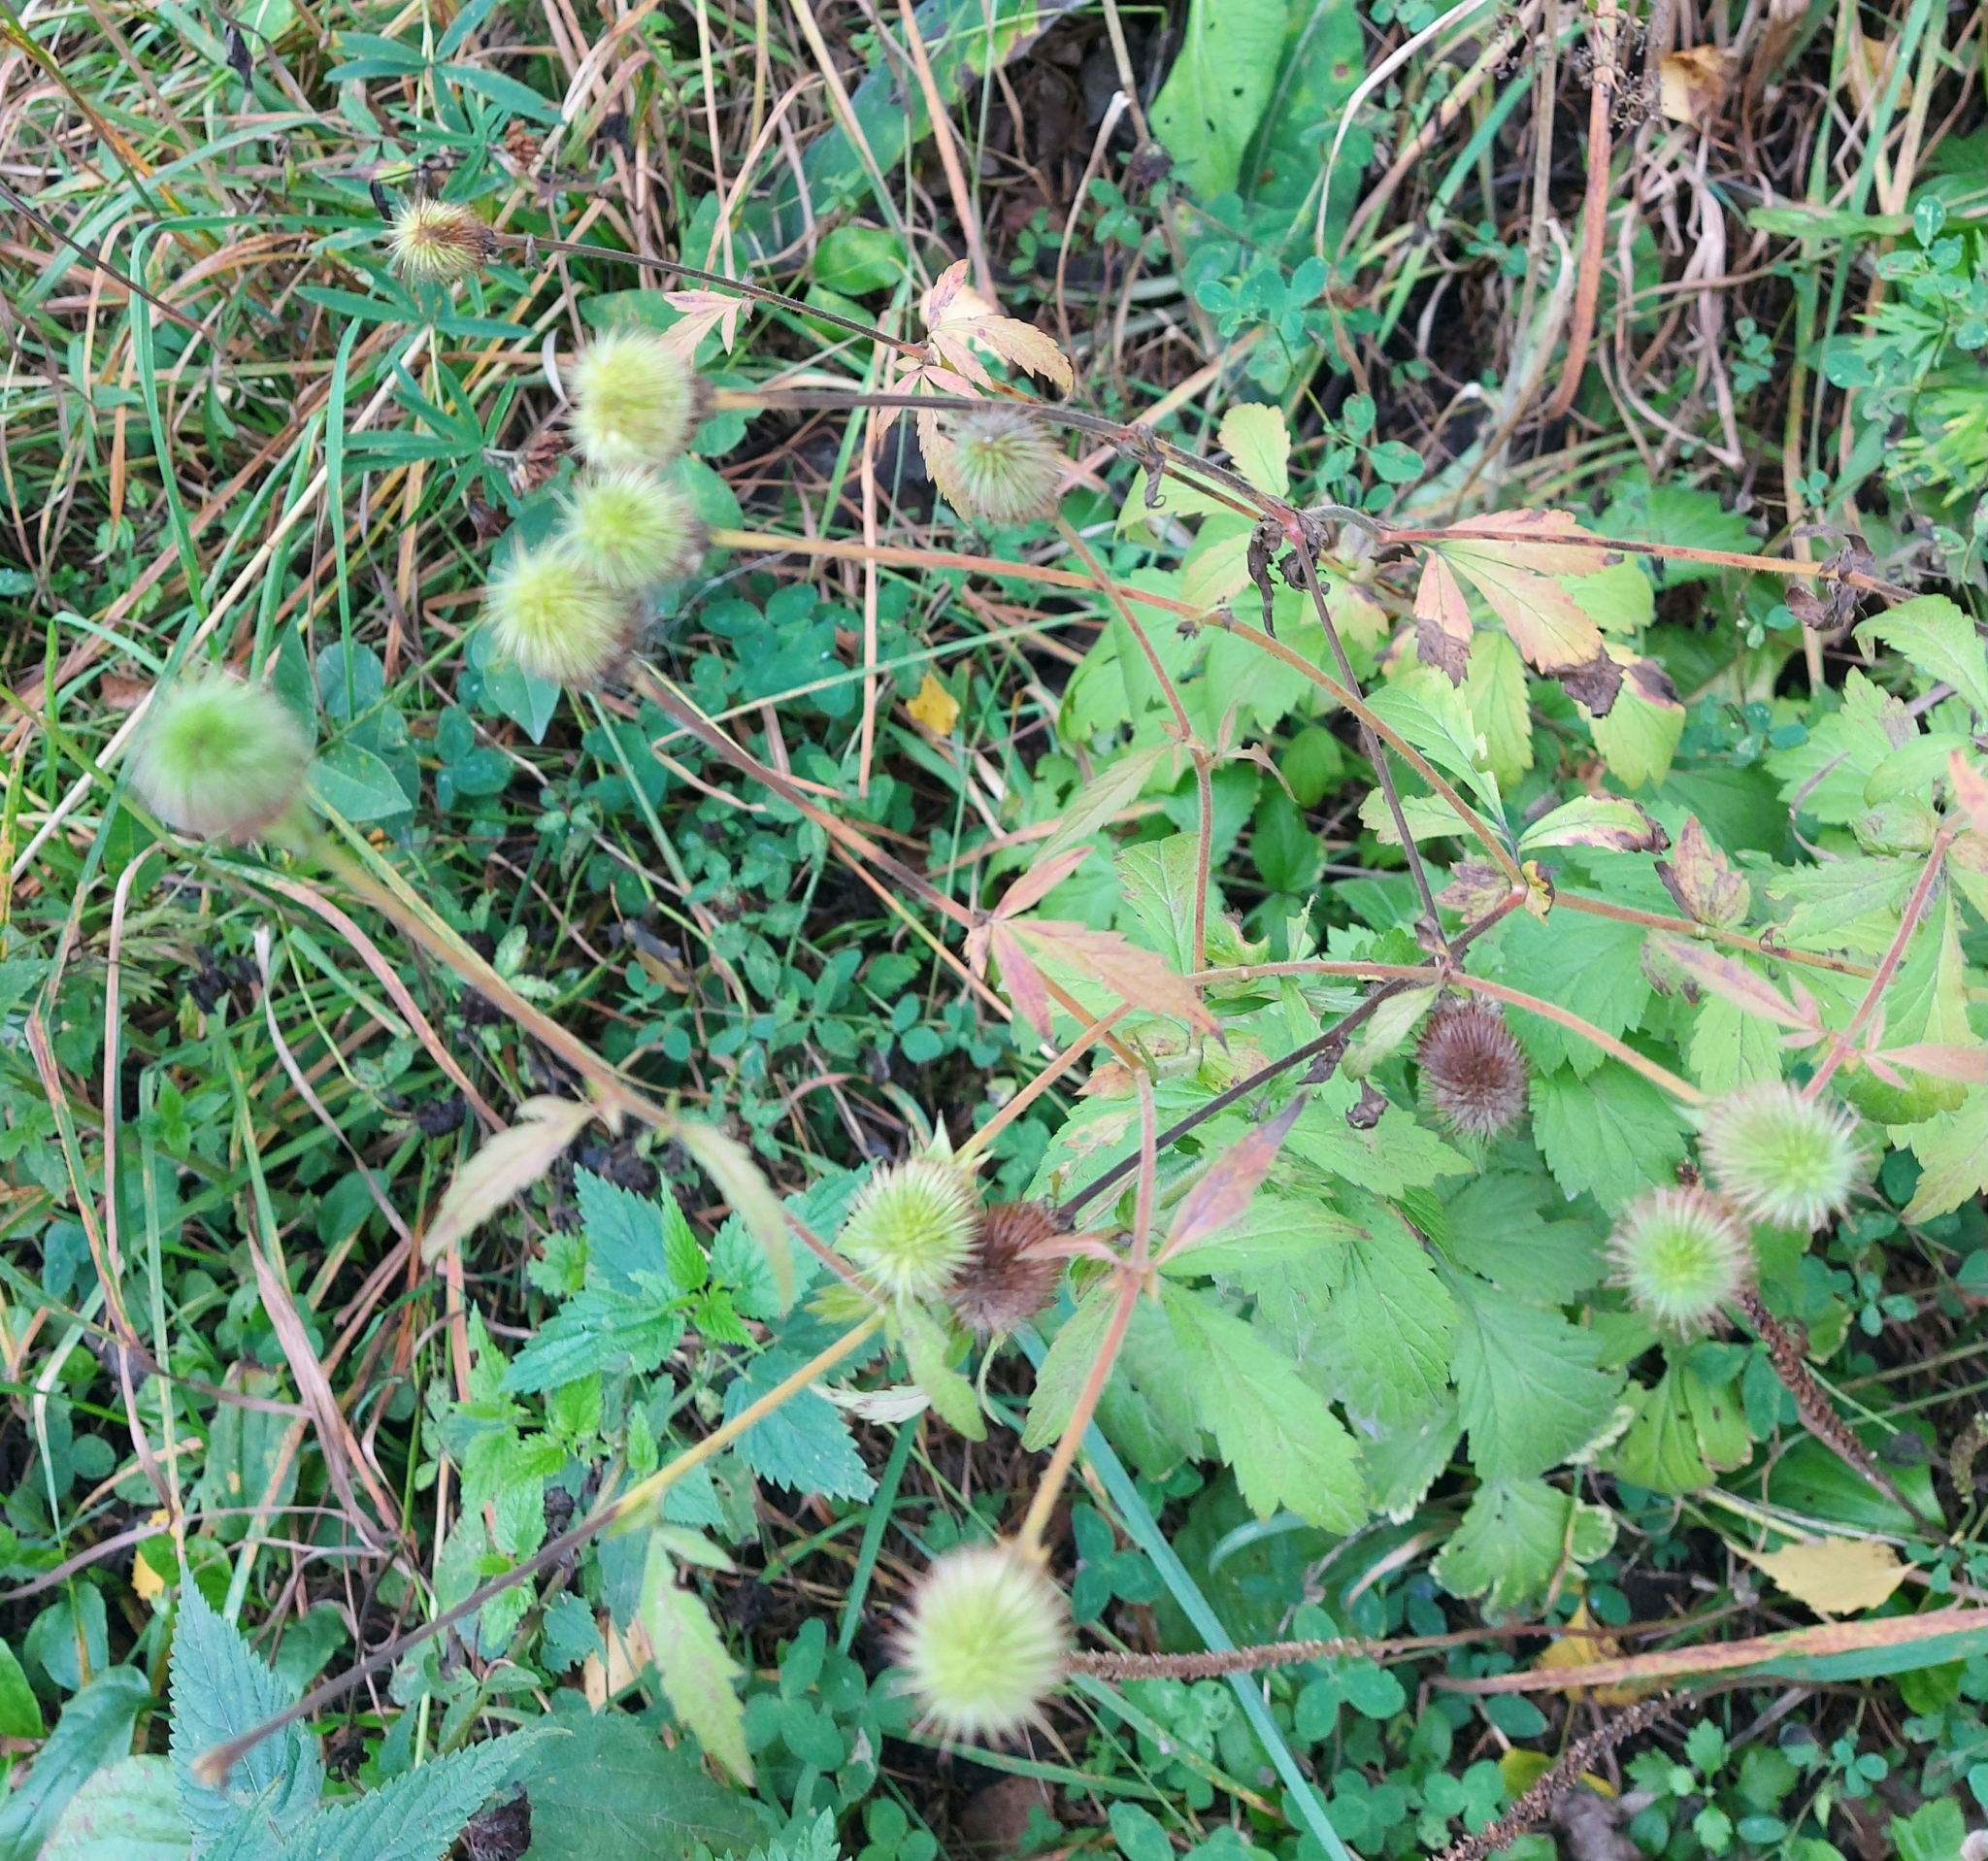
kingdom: Plantae
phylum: Tracheophyta
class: Magnoliopsida
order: Rosales
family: Rosaceae
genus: Geum
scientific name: Geum aleppicum
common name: Yellow avens
